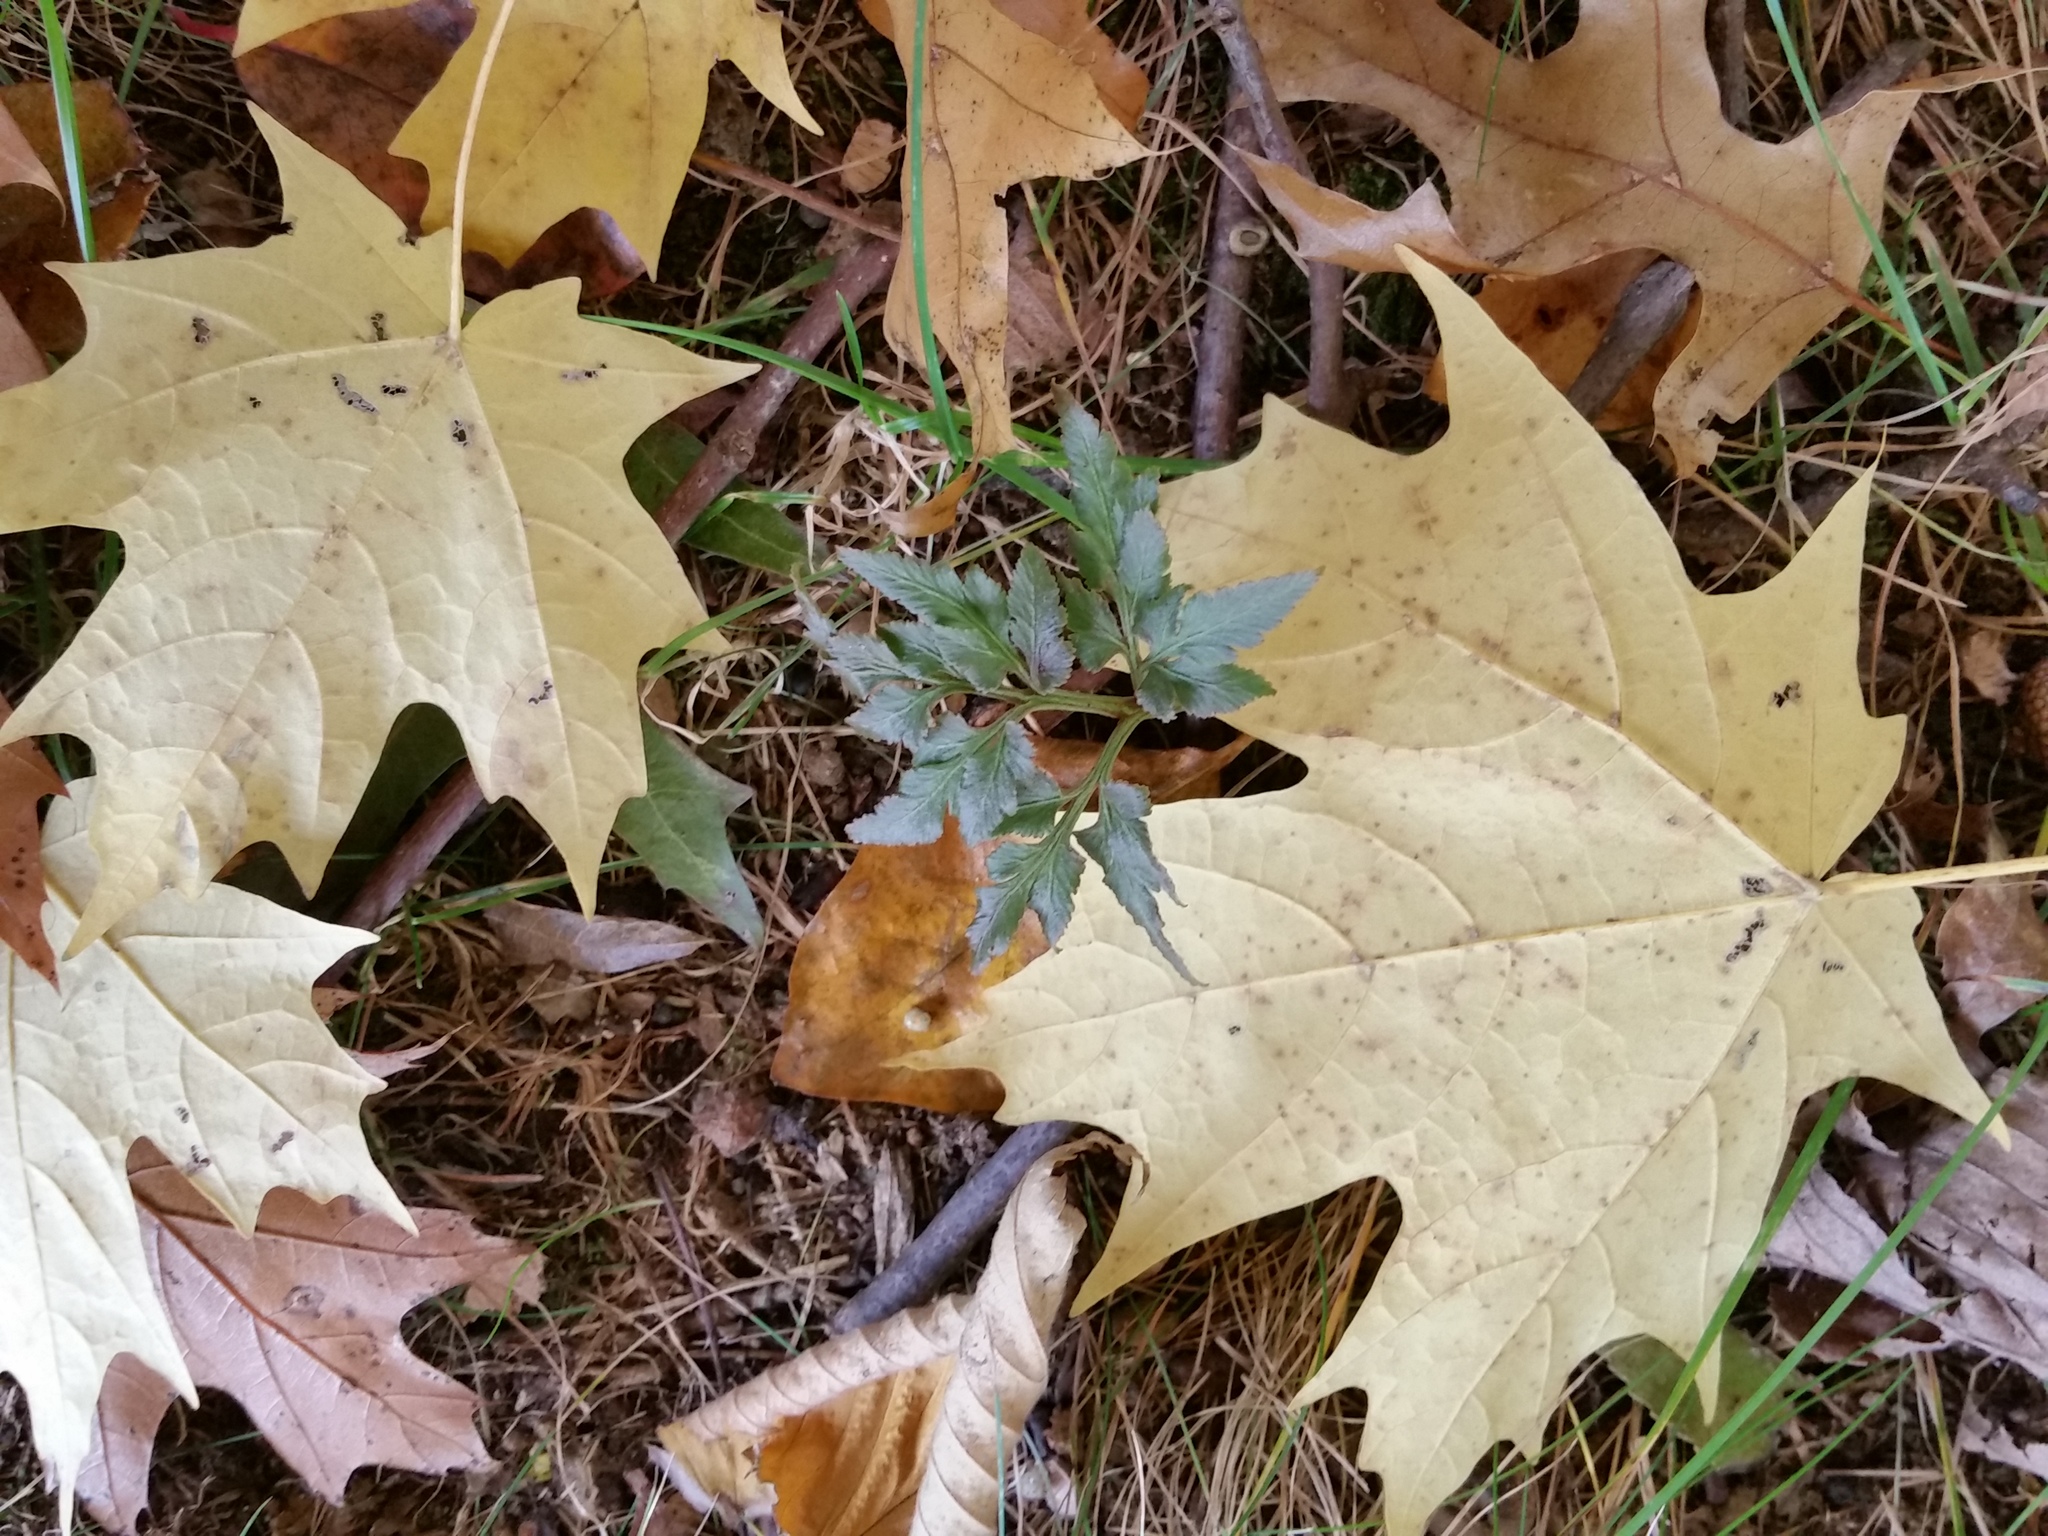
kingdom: Plantae
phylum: Tracheophyta
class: Polypodiopsida
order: Ophioglossales
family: Ophioglossaceae
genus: Sceptridium
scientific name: Sceptridium dissectum
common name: Cut-leaved grapefern
